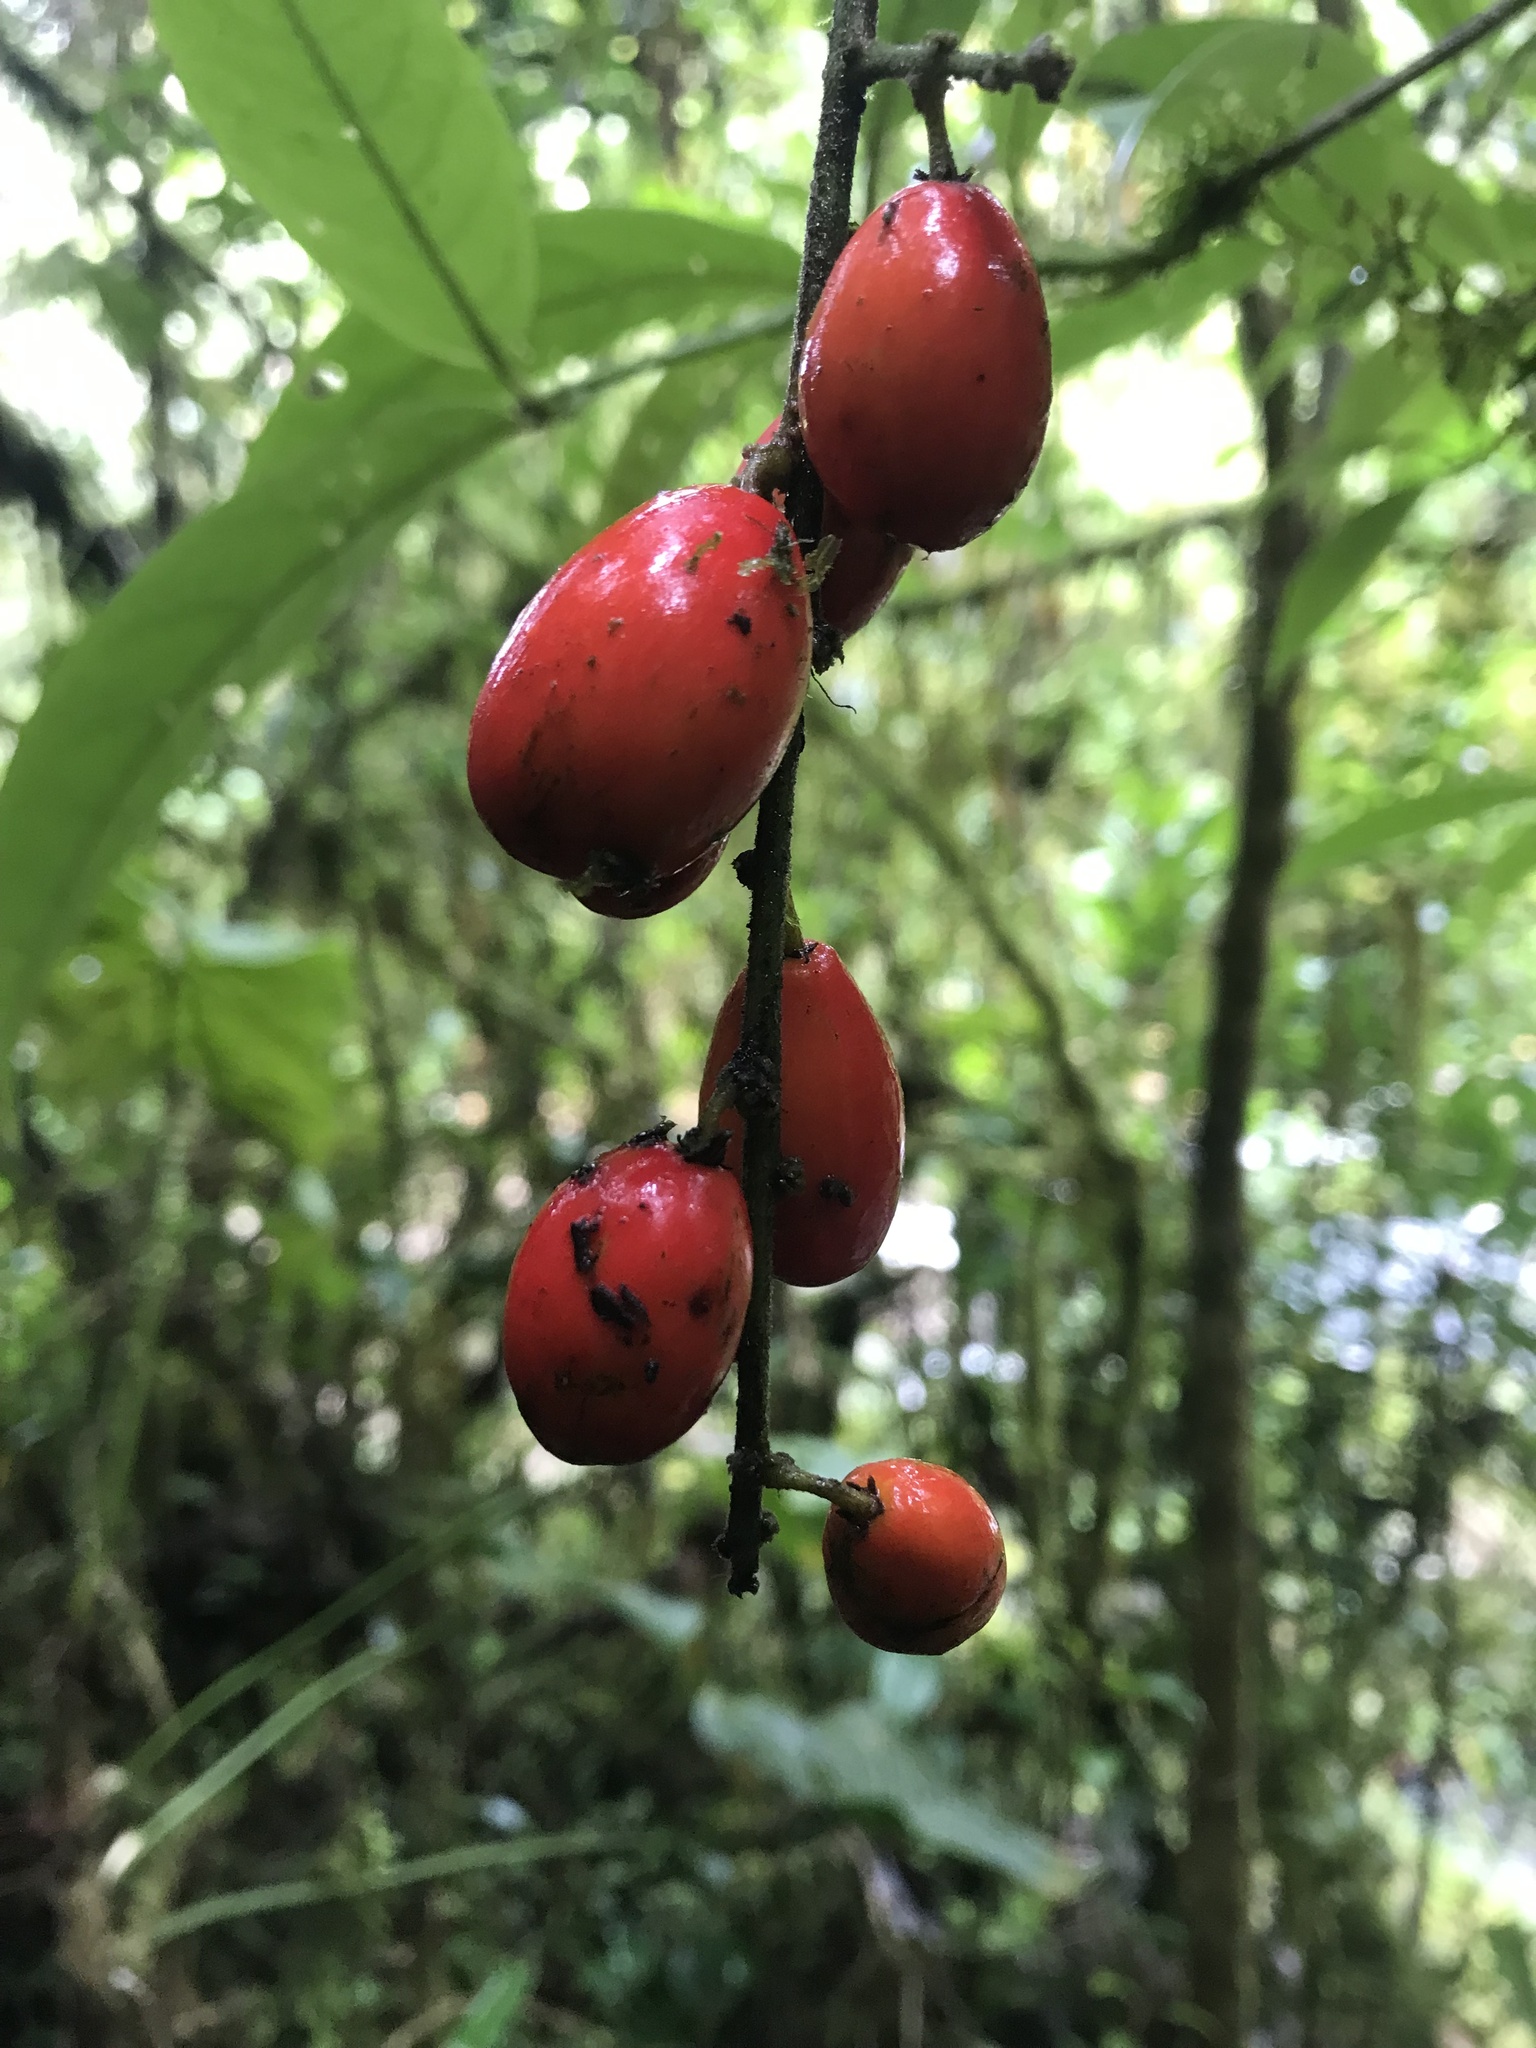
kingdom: Plantae
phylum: Tracheophyta
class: Magnoliopsida
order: Picramniales
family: Picramniaceae
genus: Picramnia
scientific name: Picramnia sphaerocarpa
